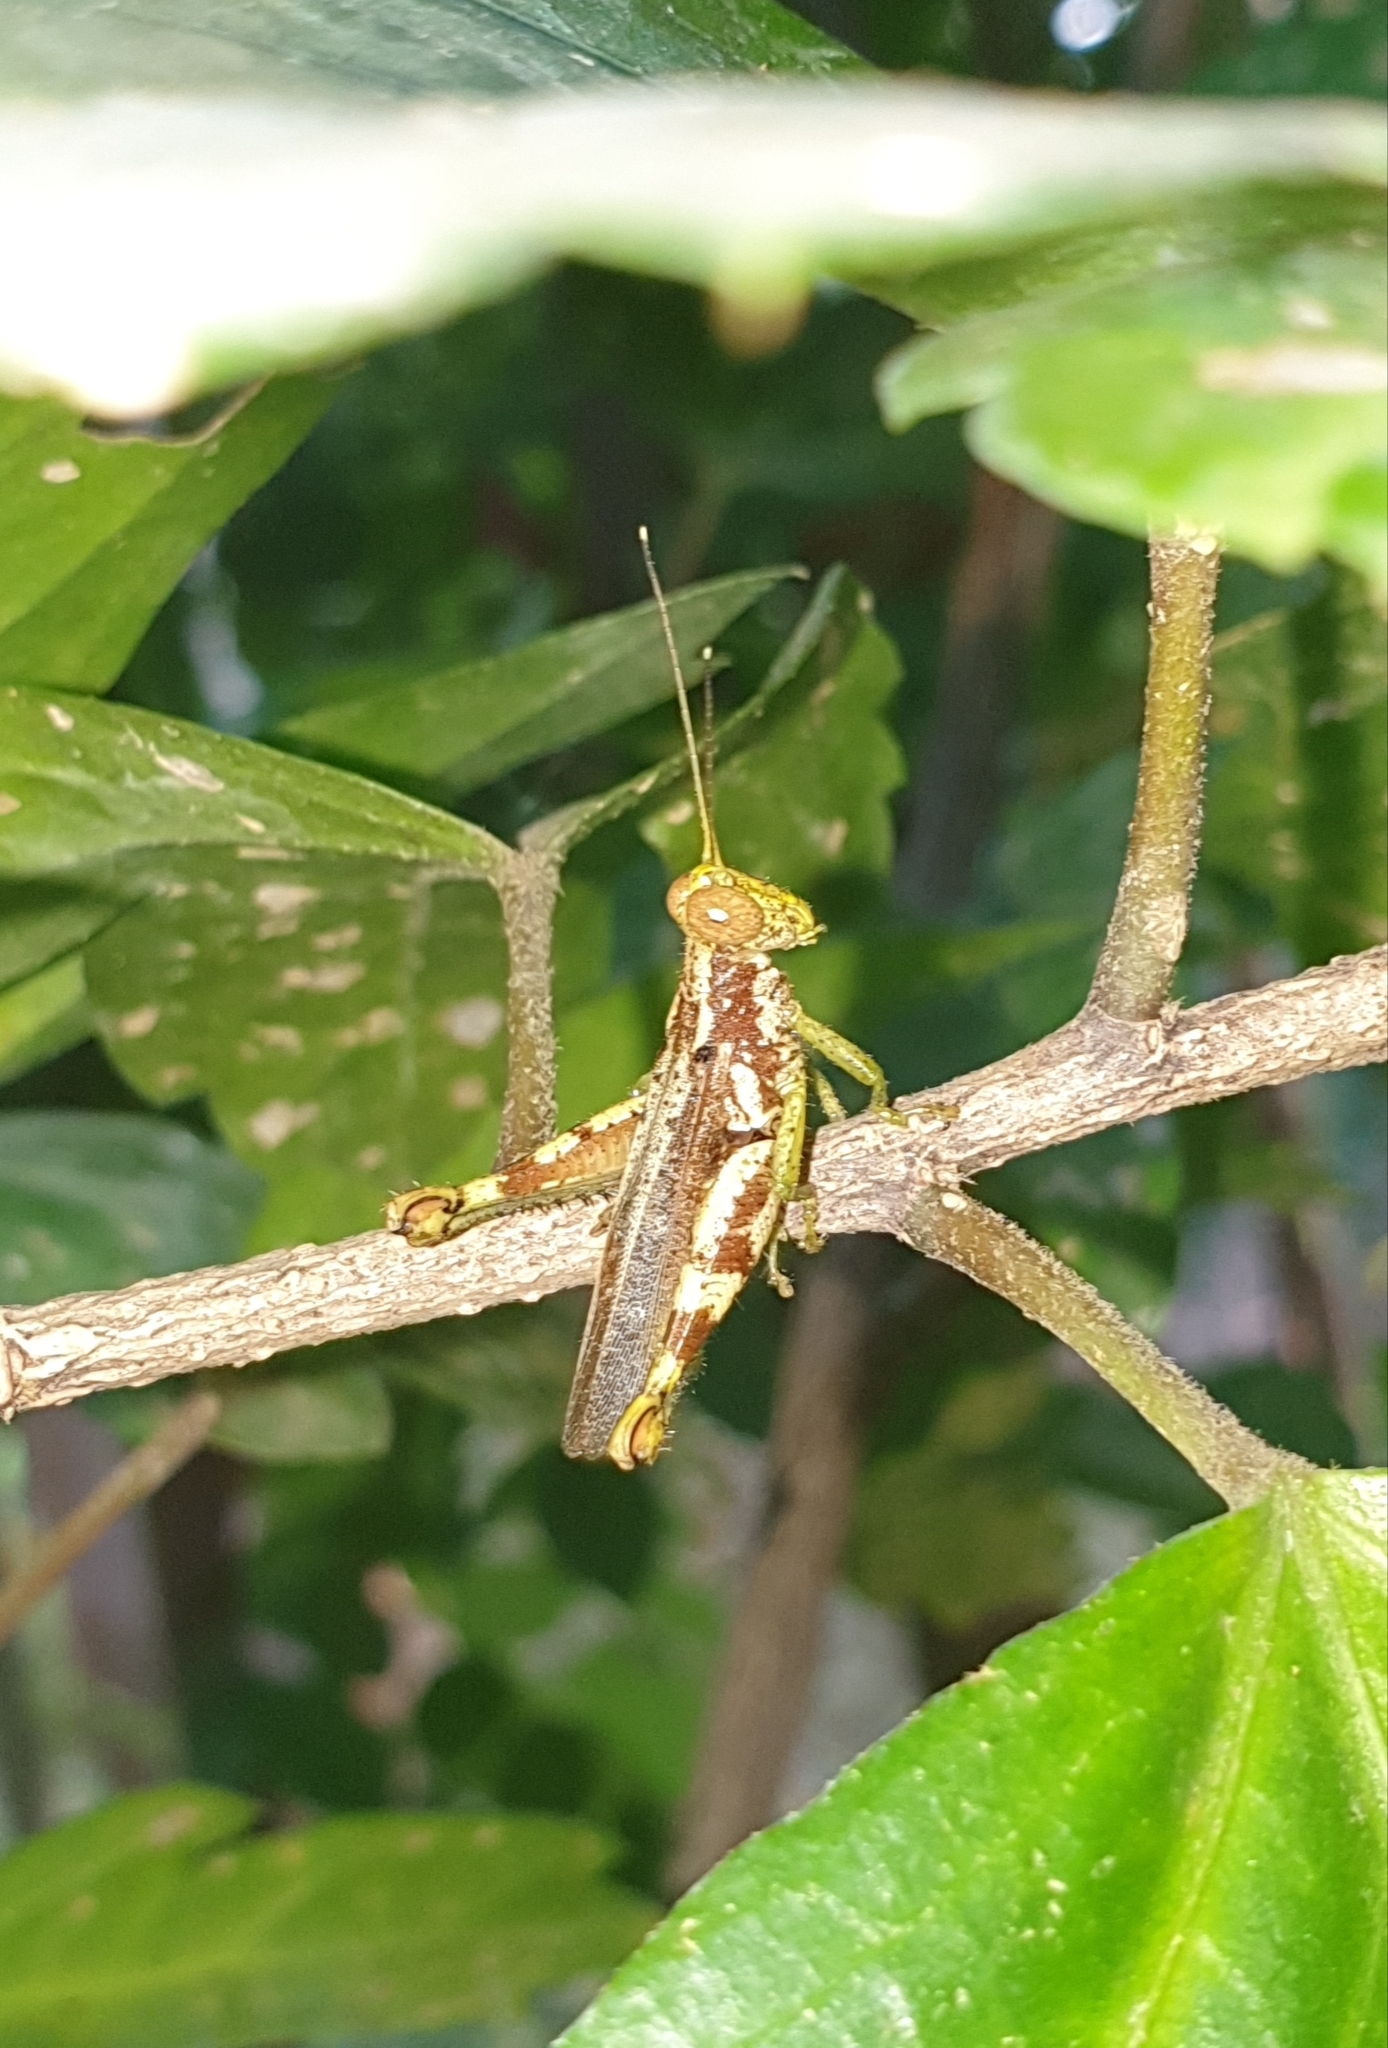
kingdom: Animalia
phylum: Arthropoda
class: Insecta
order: Orthoptera
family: Acrididae
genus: Pirithoicus
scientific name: Pirithoicus ophthalmicus
